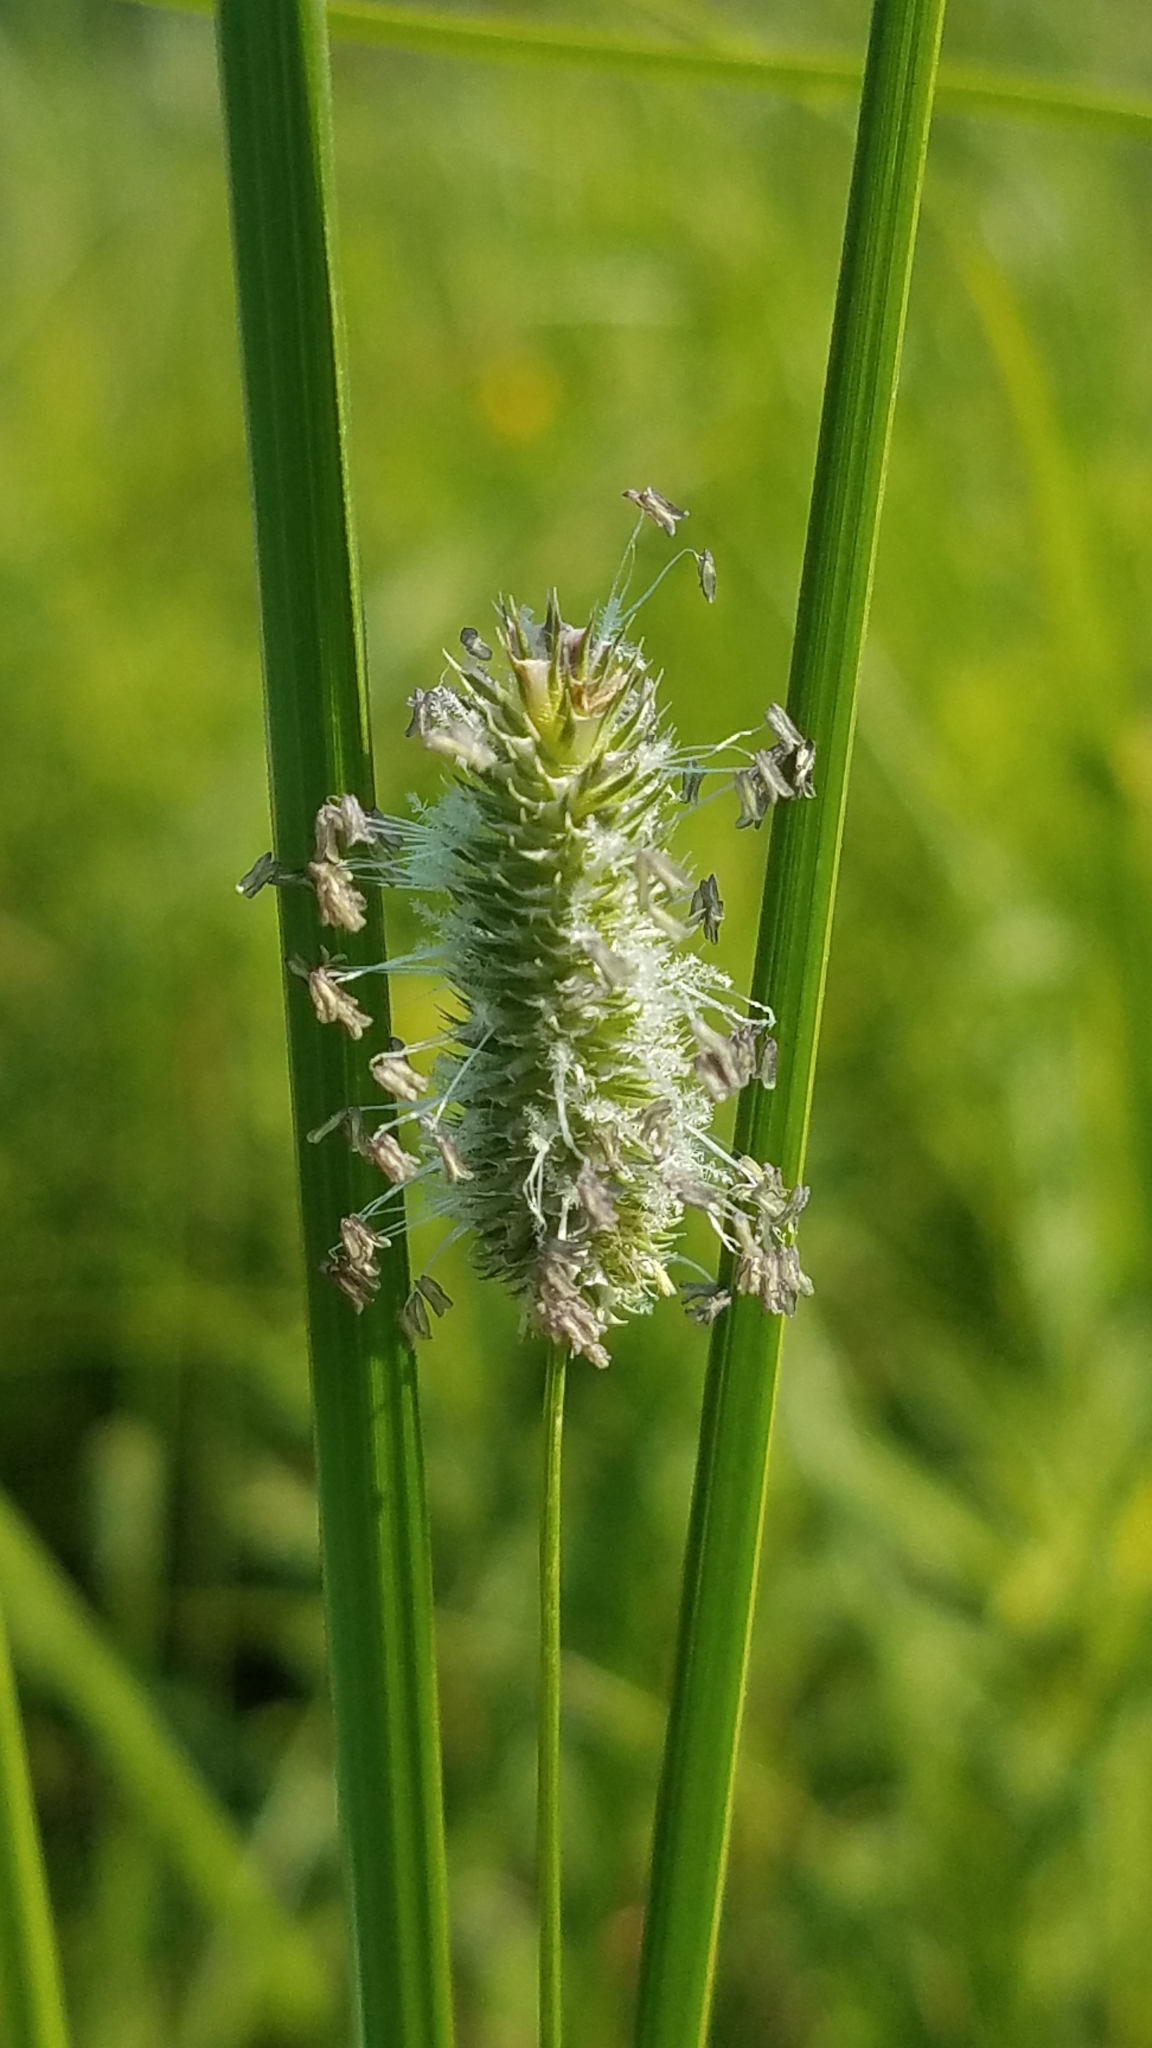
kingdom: Plantae
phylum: Tracheophyta
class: Liliopsida
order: Poales
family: Poaceae
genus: Phleum
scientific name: Phleum pratense
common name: Timothy grass
